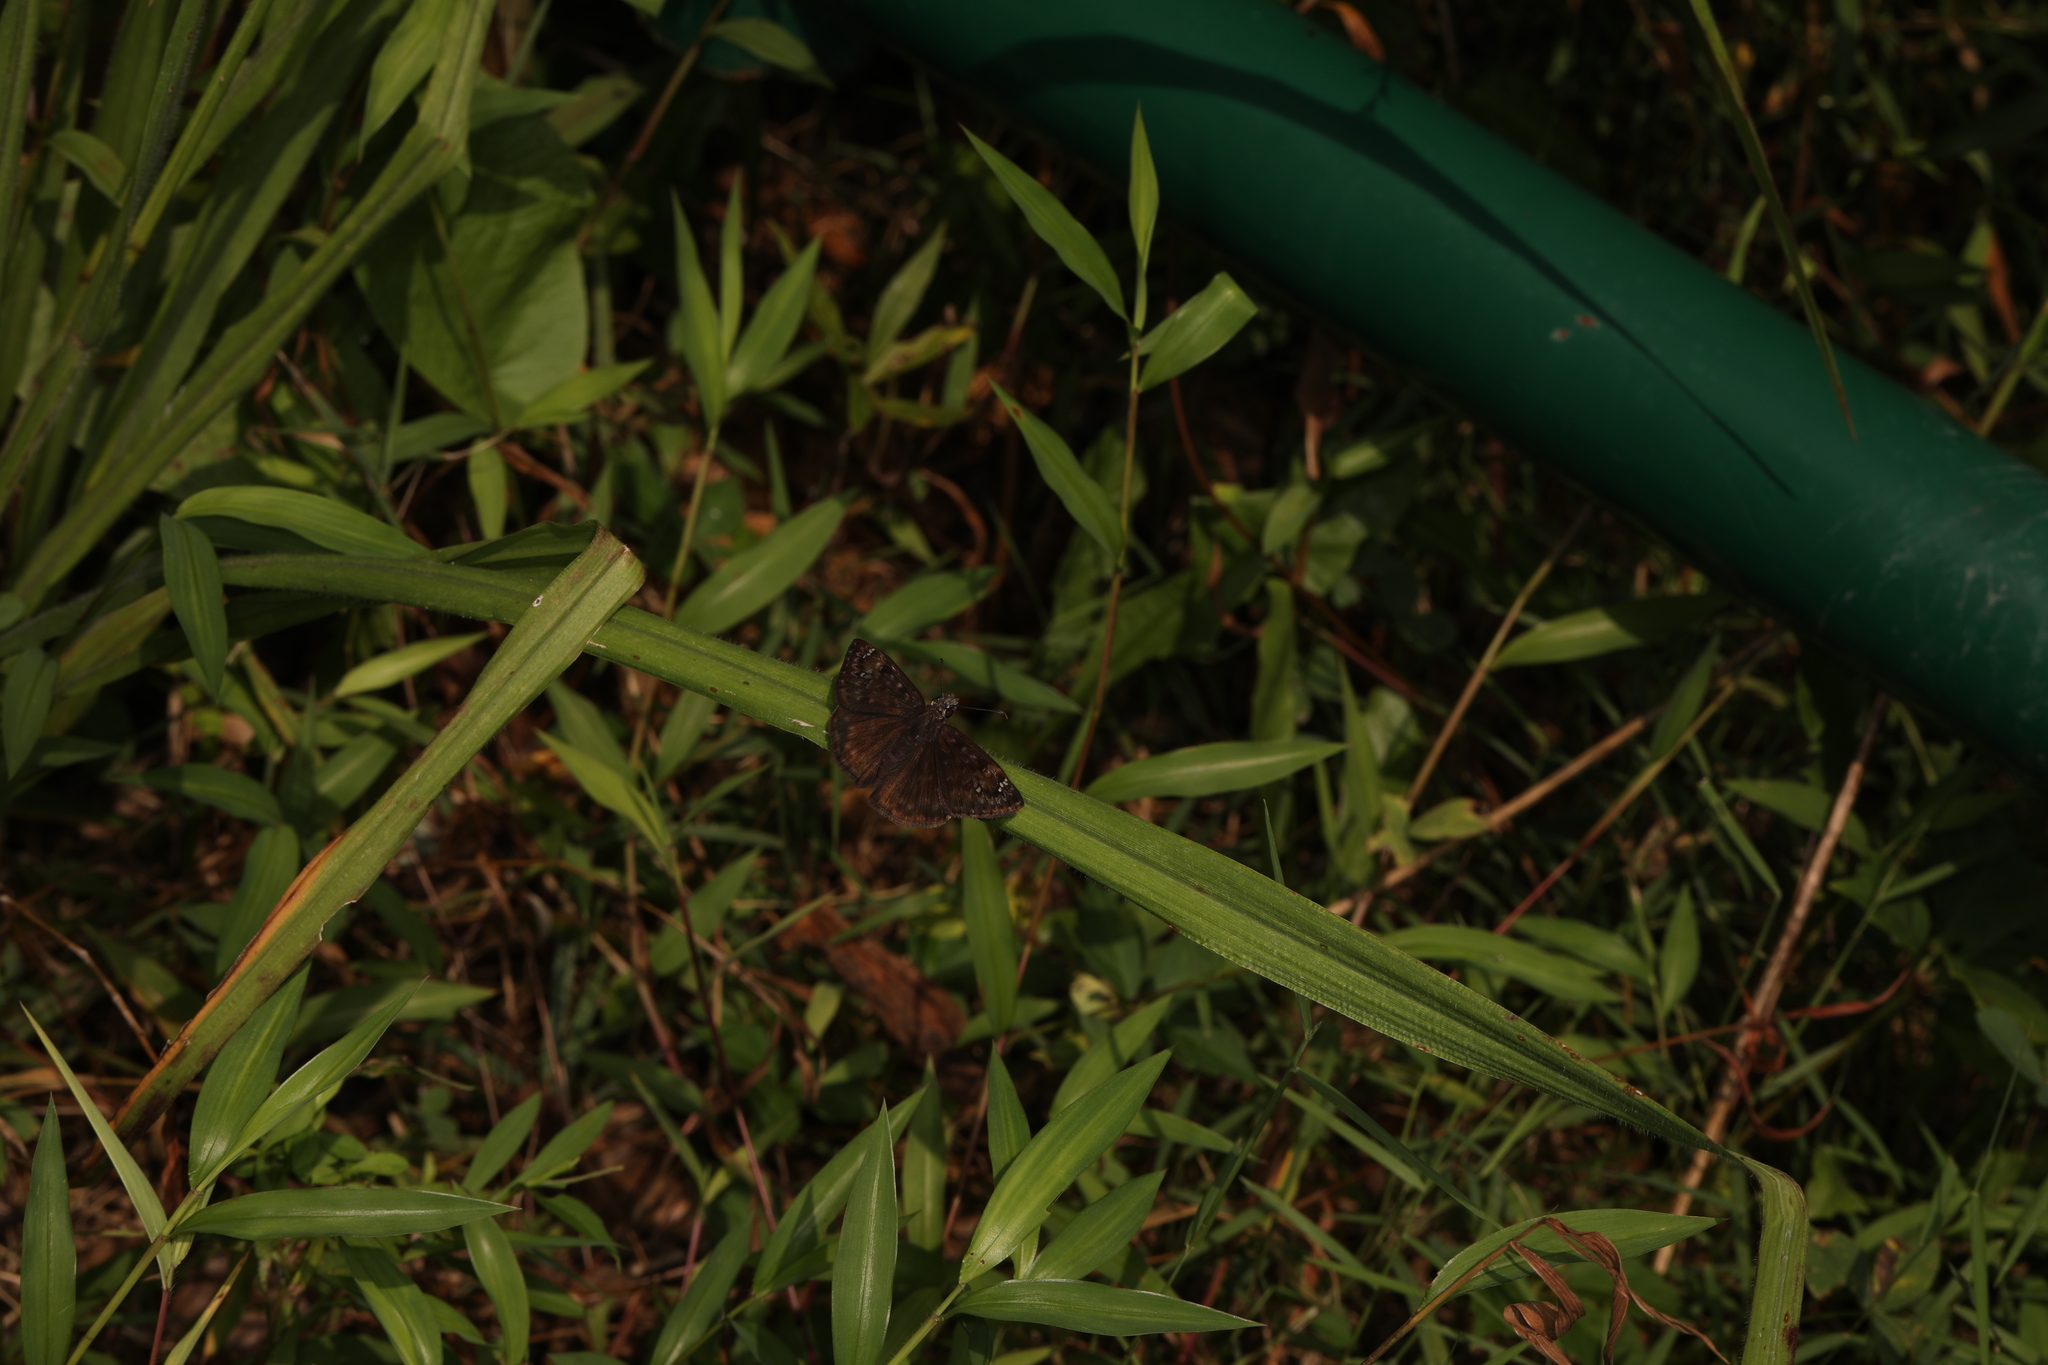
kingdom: Animalia
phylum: Arthropoda
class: Insecta
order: Lepidoptera
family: Hesperiidae
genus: Erynnis
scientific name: Erynnis baptisiae
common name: Wild indigo duskywing
